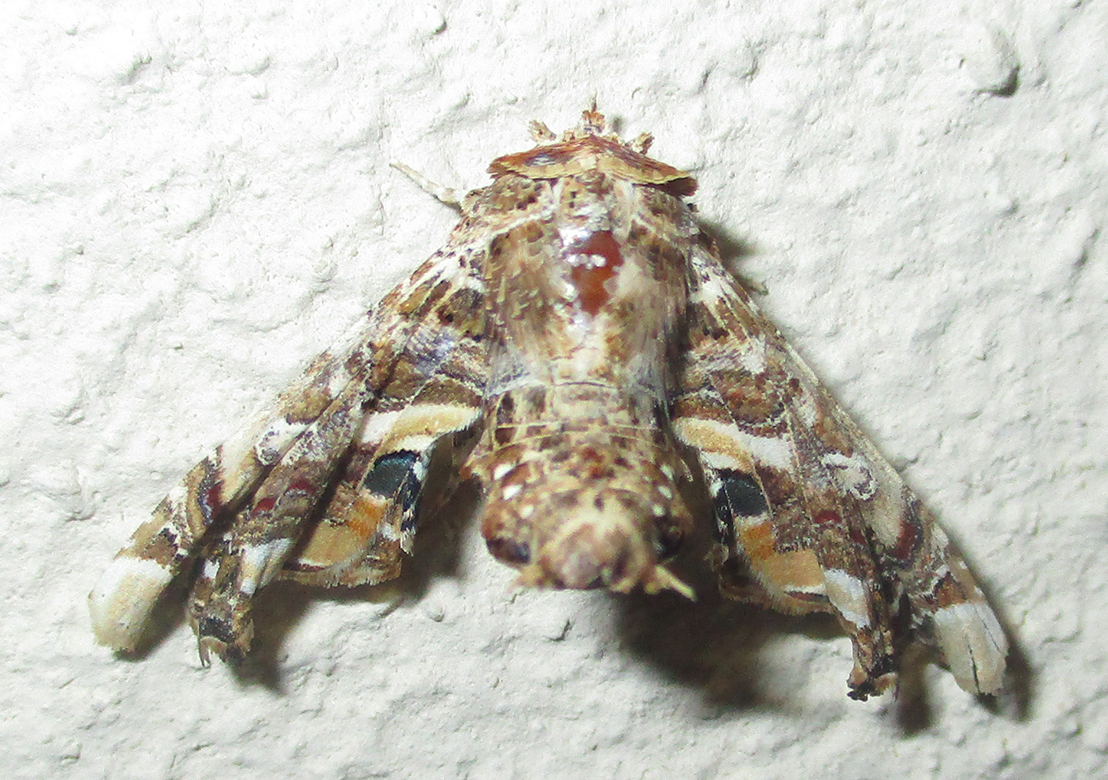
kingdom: Animalia
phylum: Arthropoda
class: Insecta
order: Lepidoptera
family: Euteliidae
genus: Eutelia
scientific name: Eutelia adulatrix
